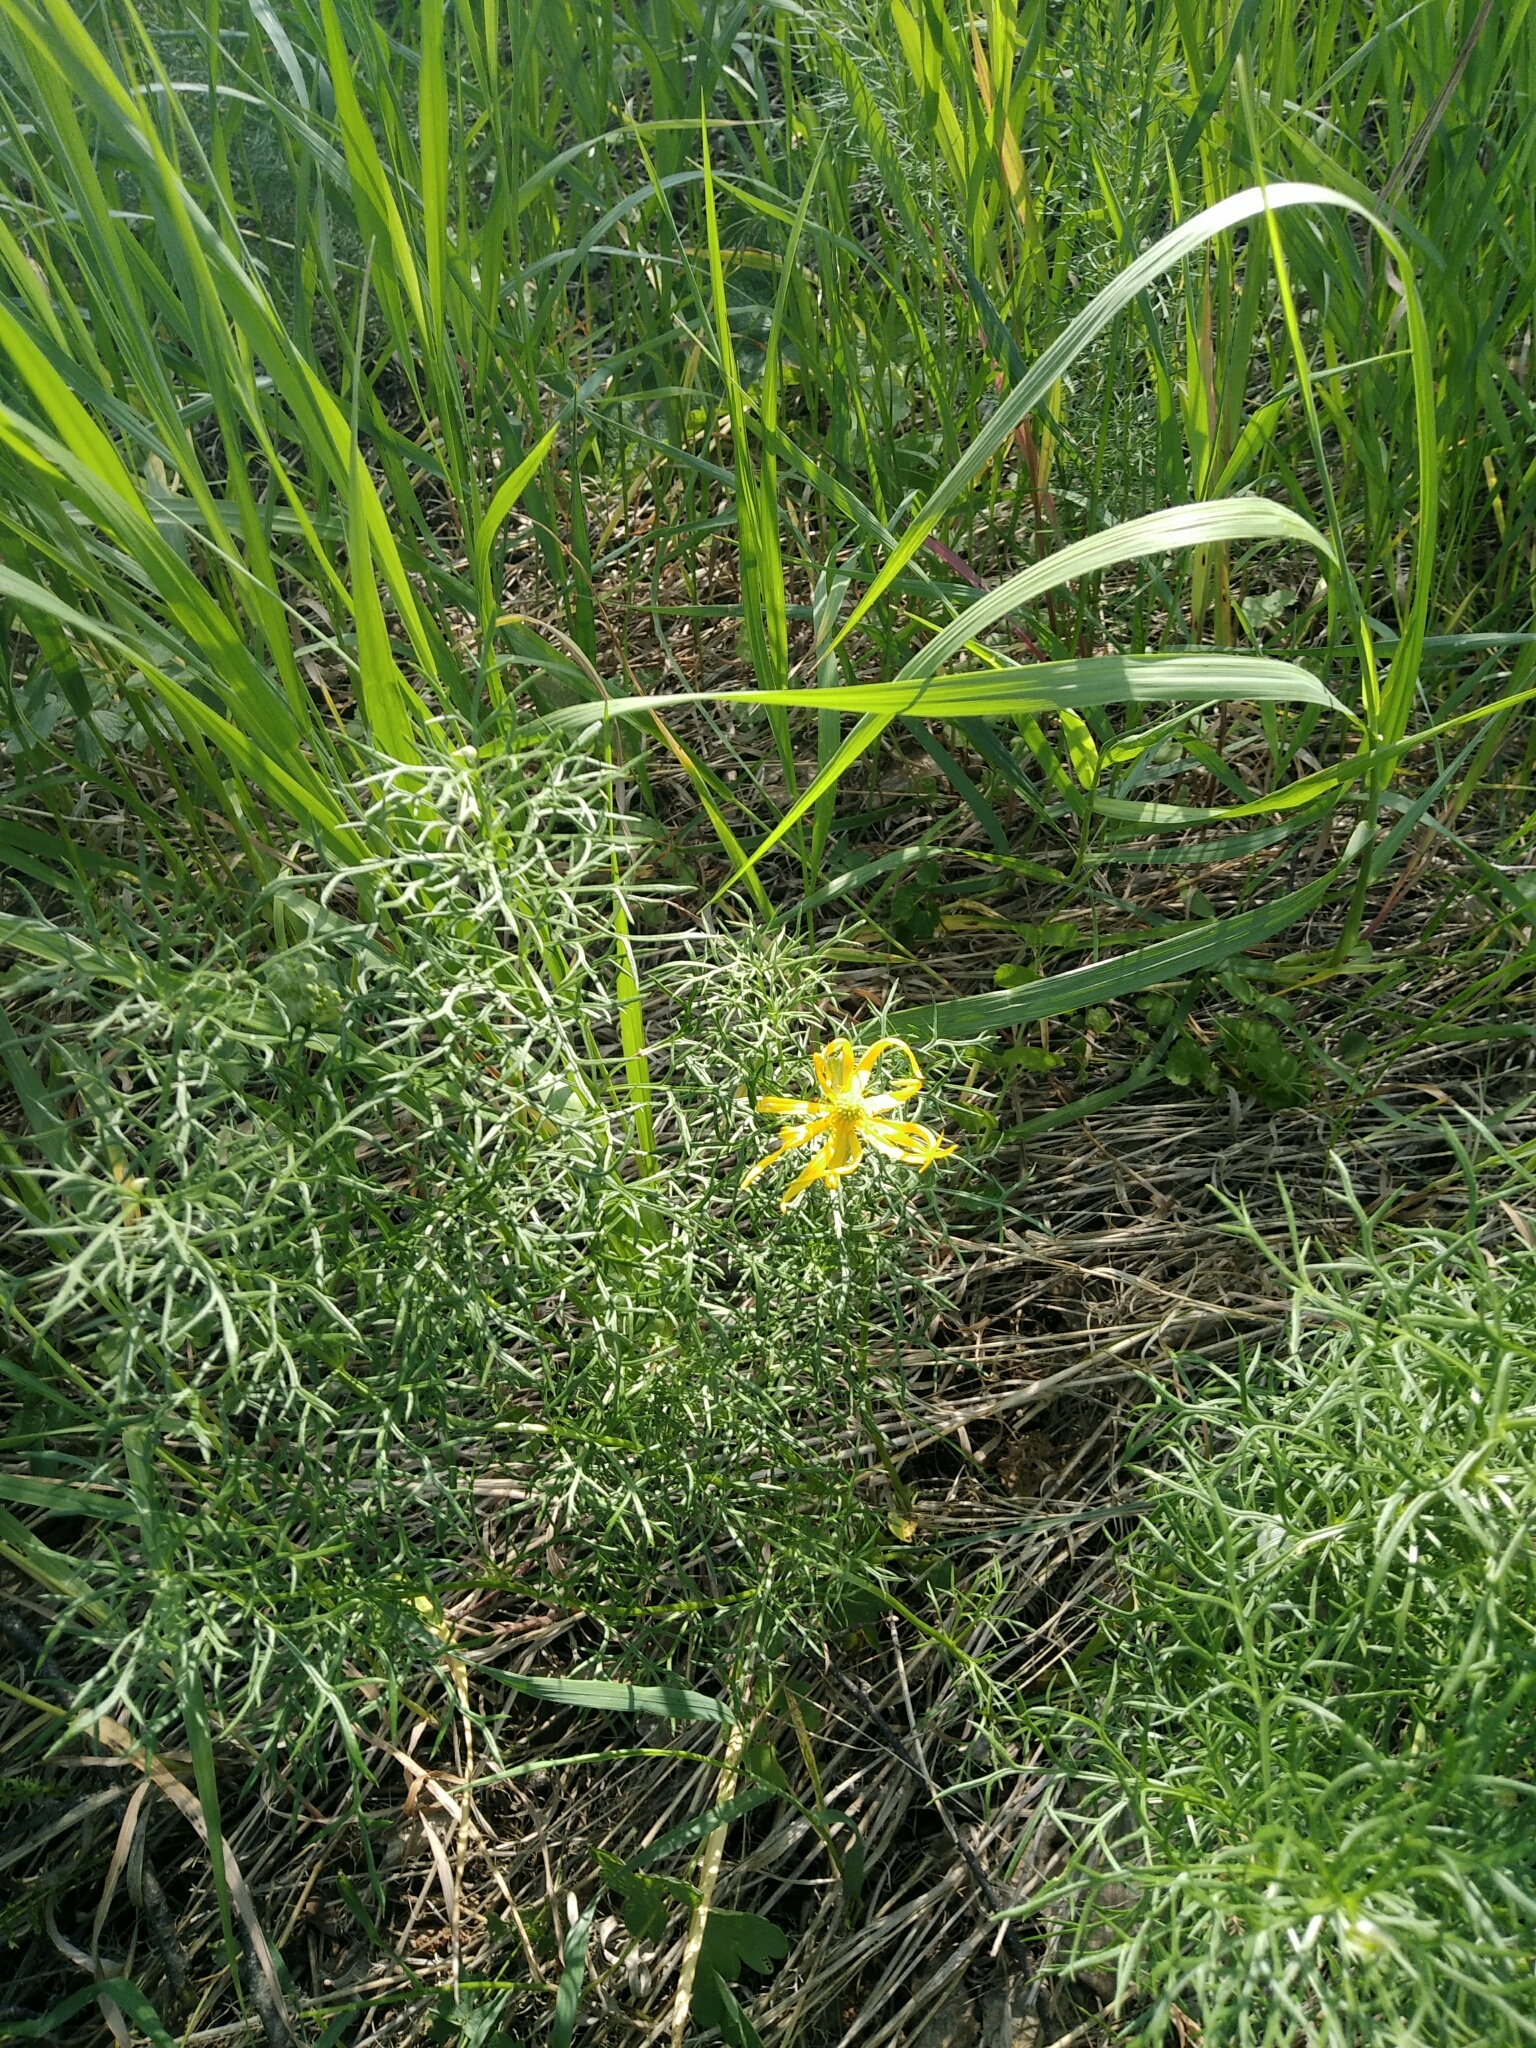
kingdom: Plantae
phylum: Tracheophyta
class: Magnoliopsida
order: Ranunculales
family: Ranunculaceae
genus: Adonis
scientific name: Adonis
